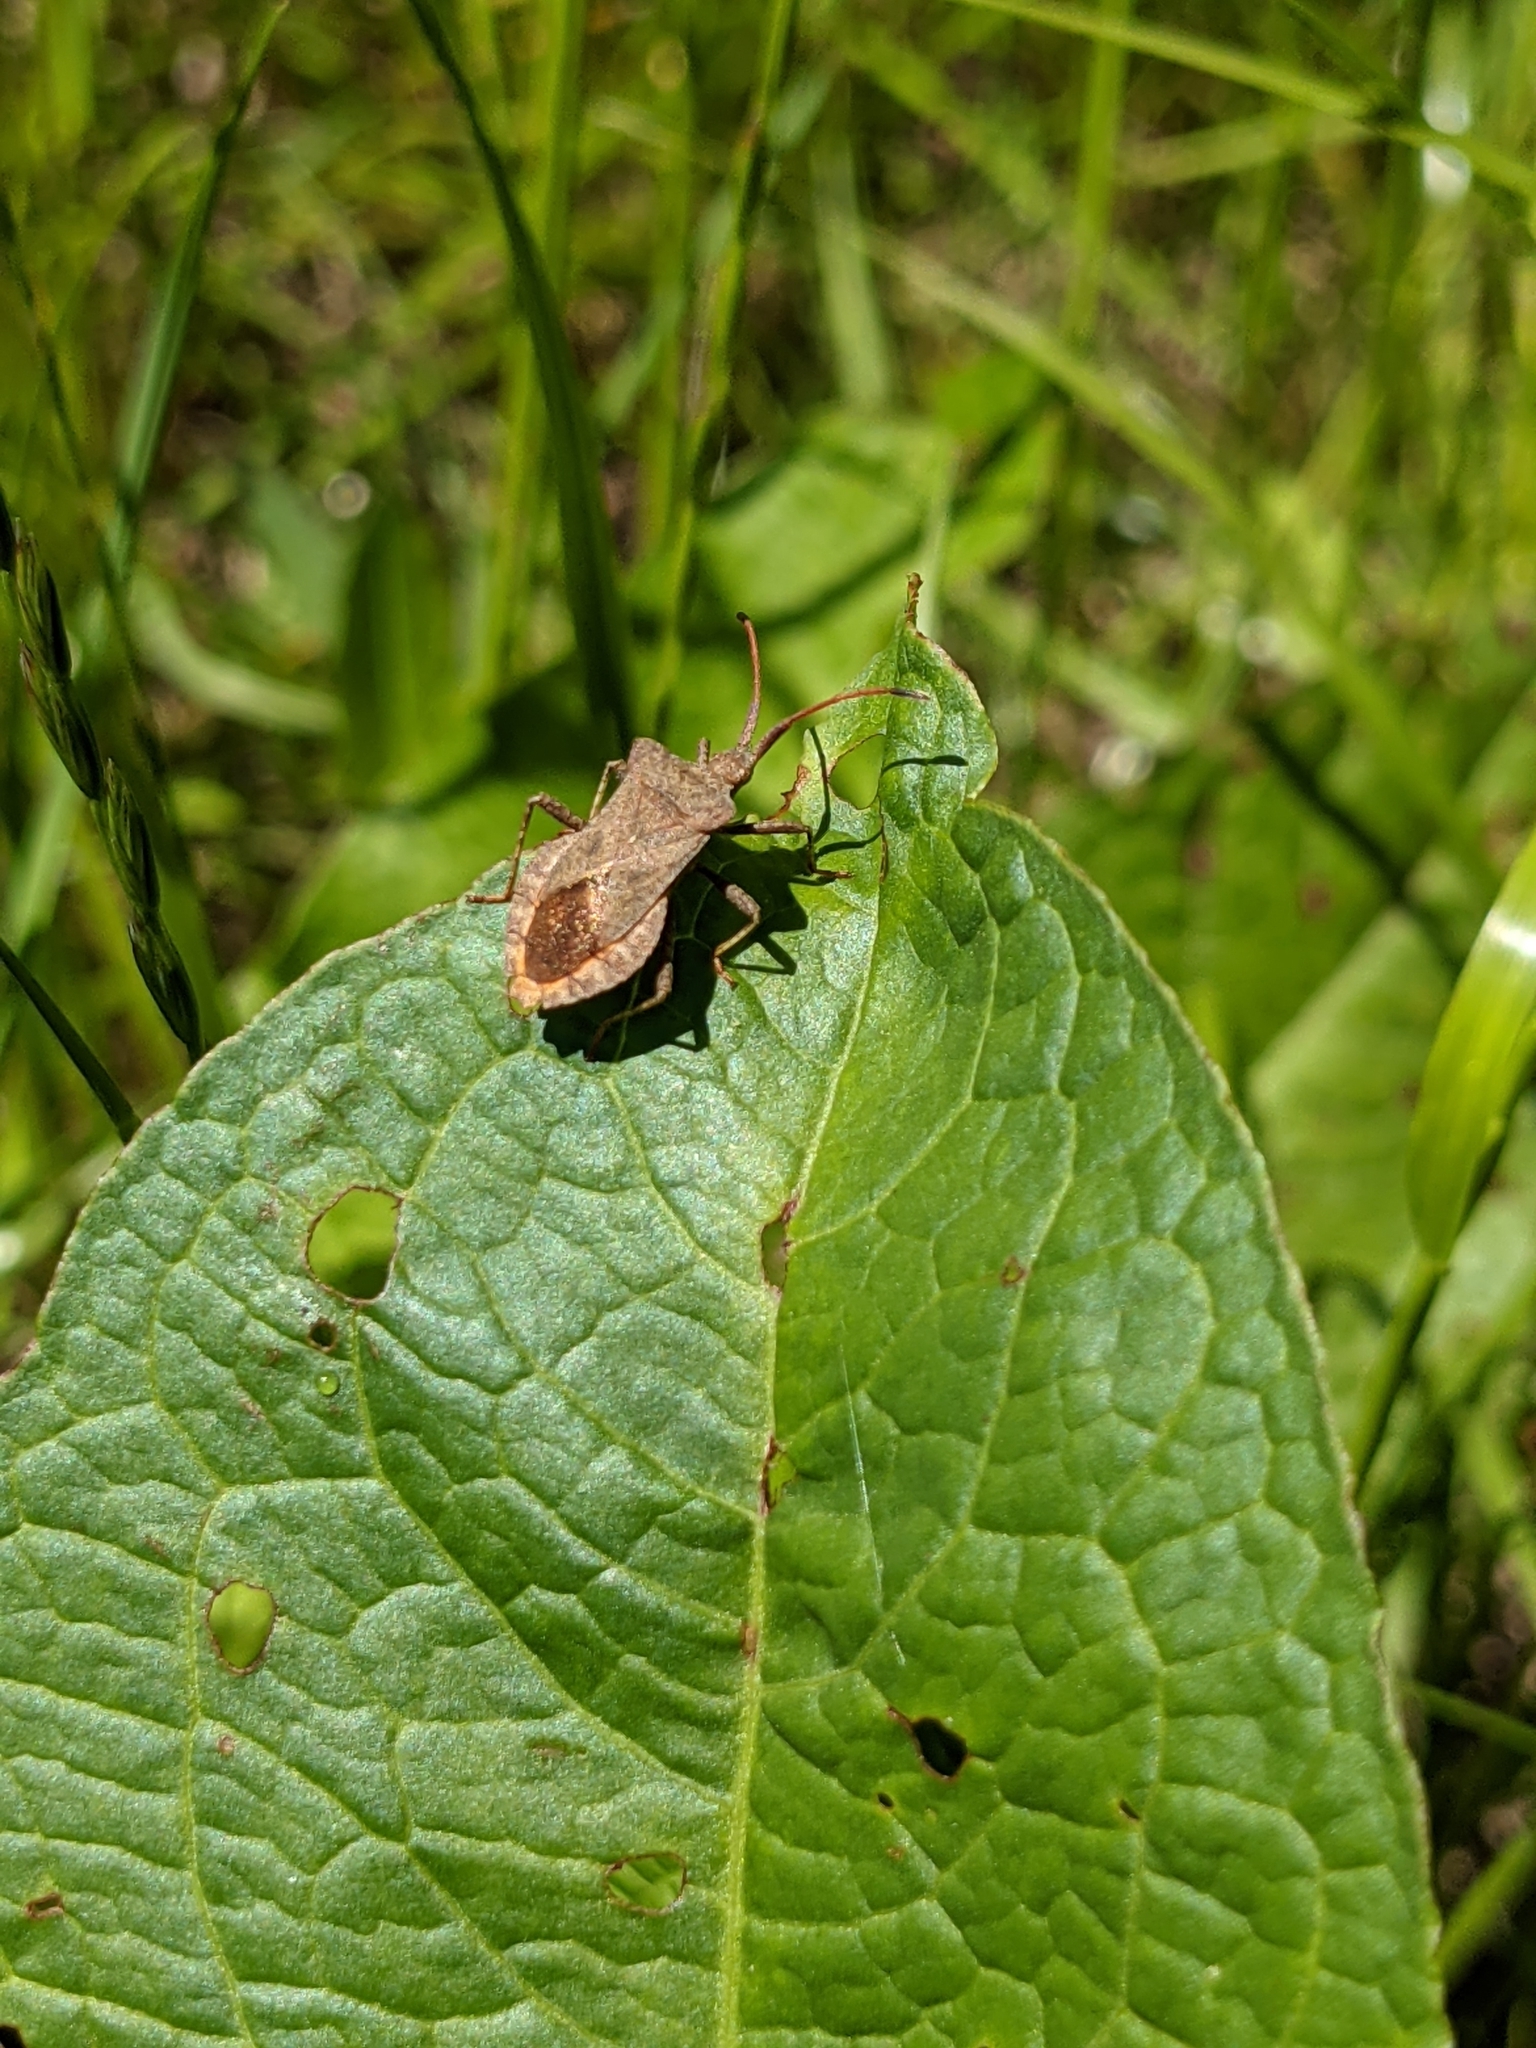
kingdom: Animalia
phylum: Arthropoda
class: Insecta
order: Hemiptera
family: Coreidae
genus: Coreus
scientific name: Coreus marginatus
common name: Dock bug
